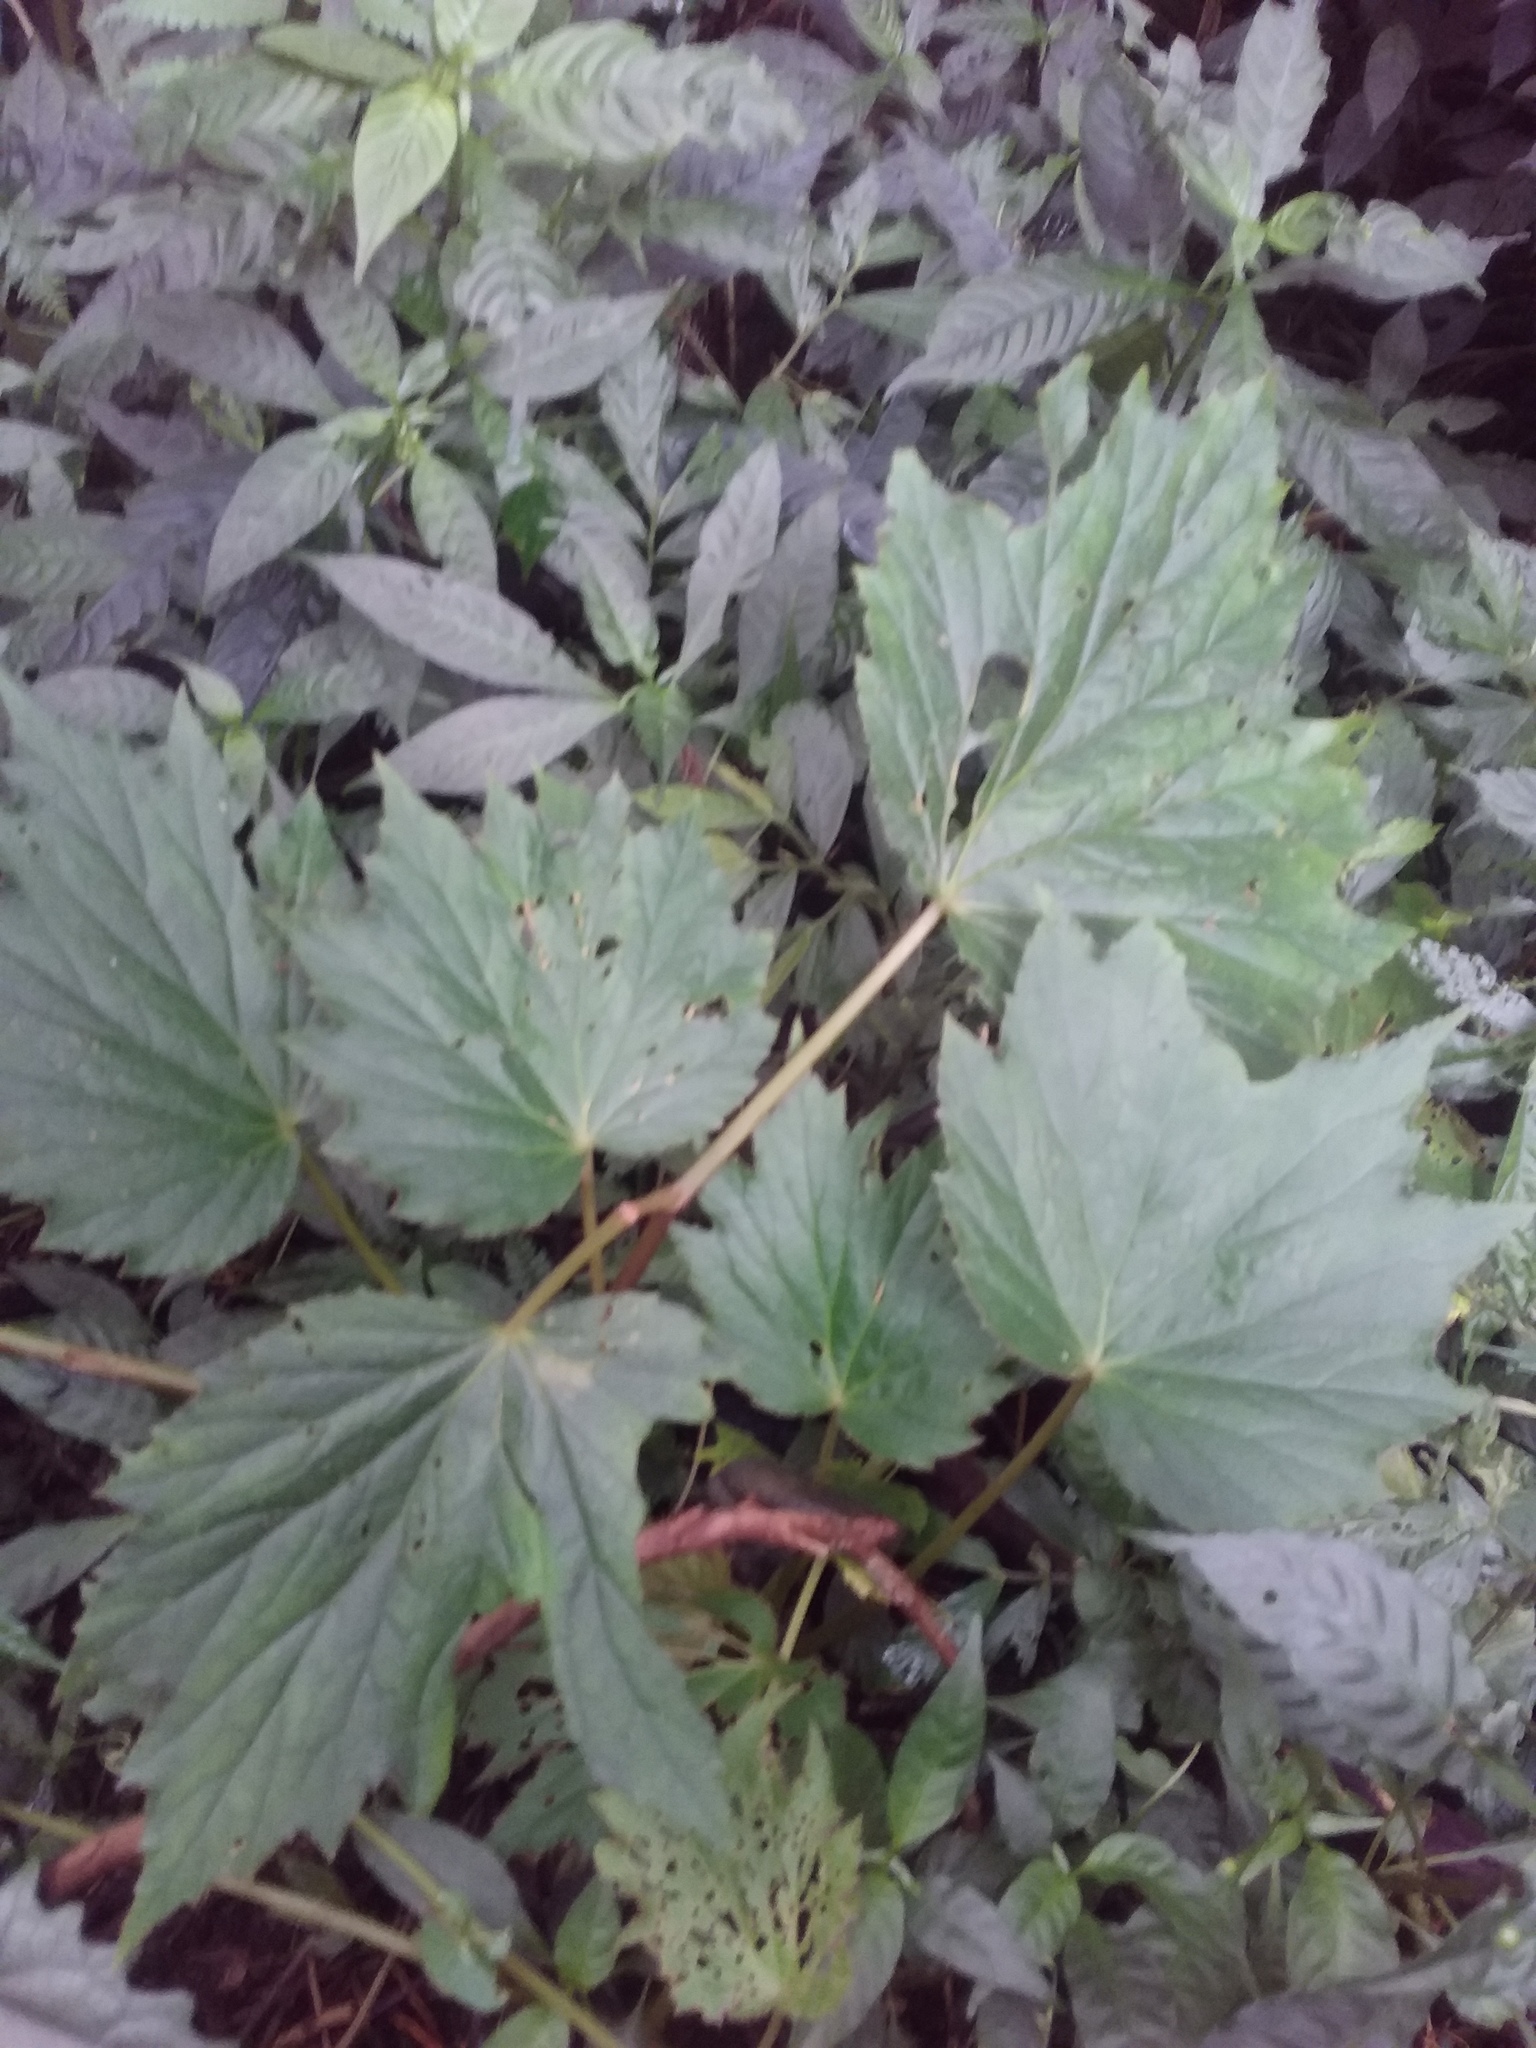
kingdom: Plantae
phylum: Tracheophyta
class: Magnoliopsida
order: Cucurbitales
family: Begoniaceae
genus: Begonia
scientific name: Begonia palmata
